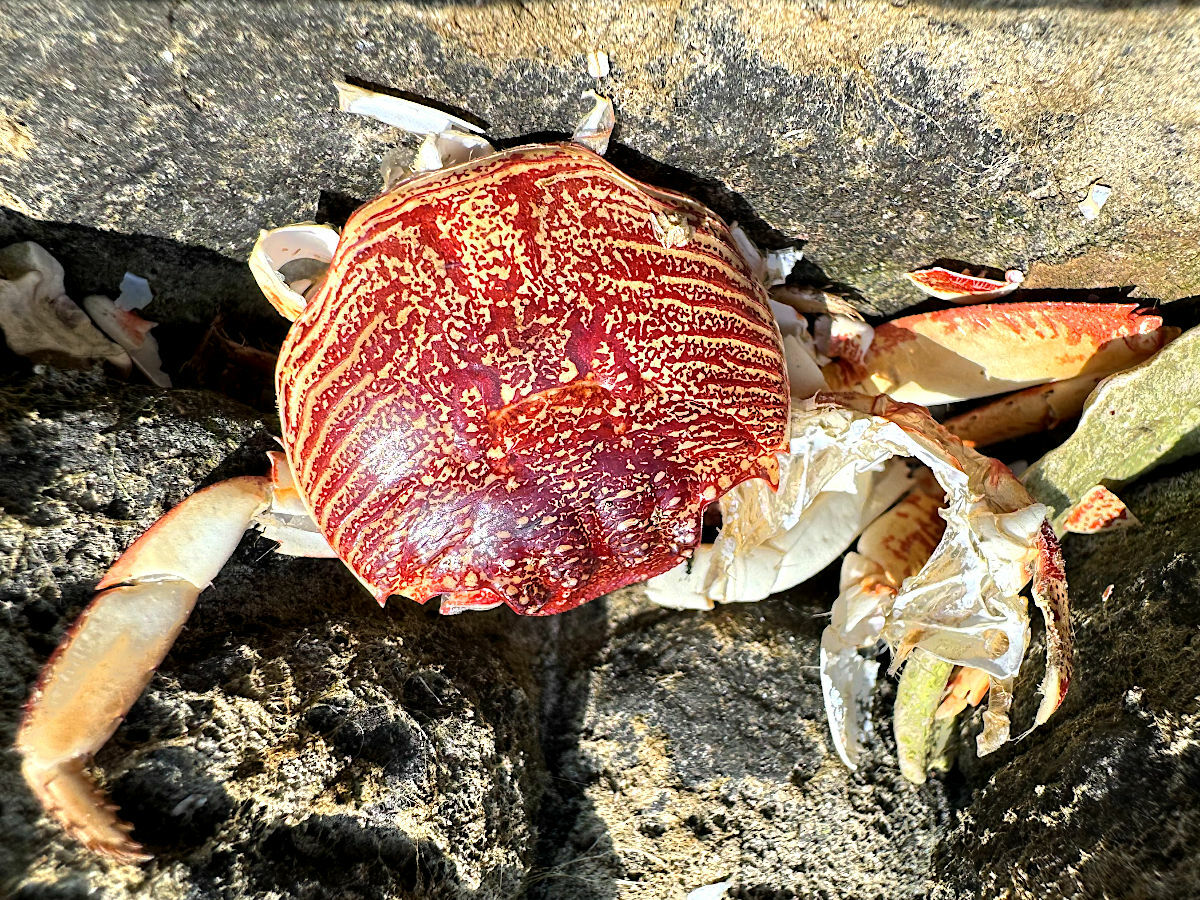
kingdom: Animalia
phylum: Arthropoda
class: Malacostraca
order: Decapoda
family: Grapsidae
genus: Grapsus
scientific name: Grapsus tenuicrustatus
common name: Natal lightfoot crab
